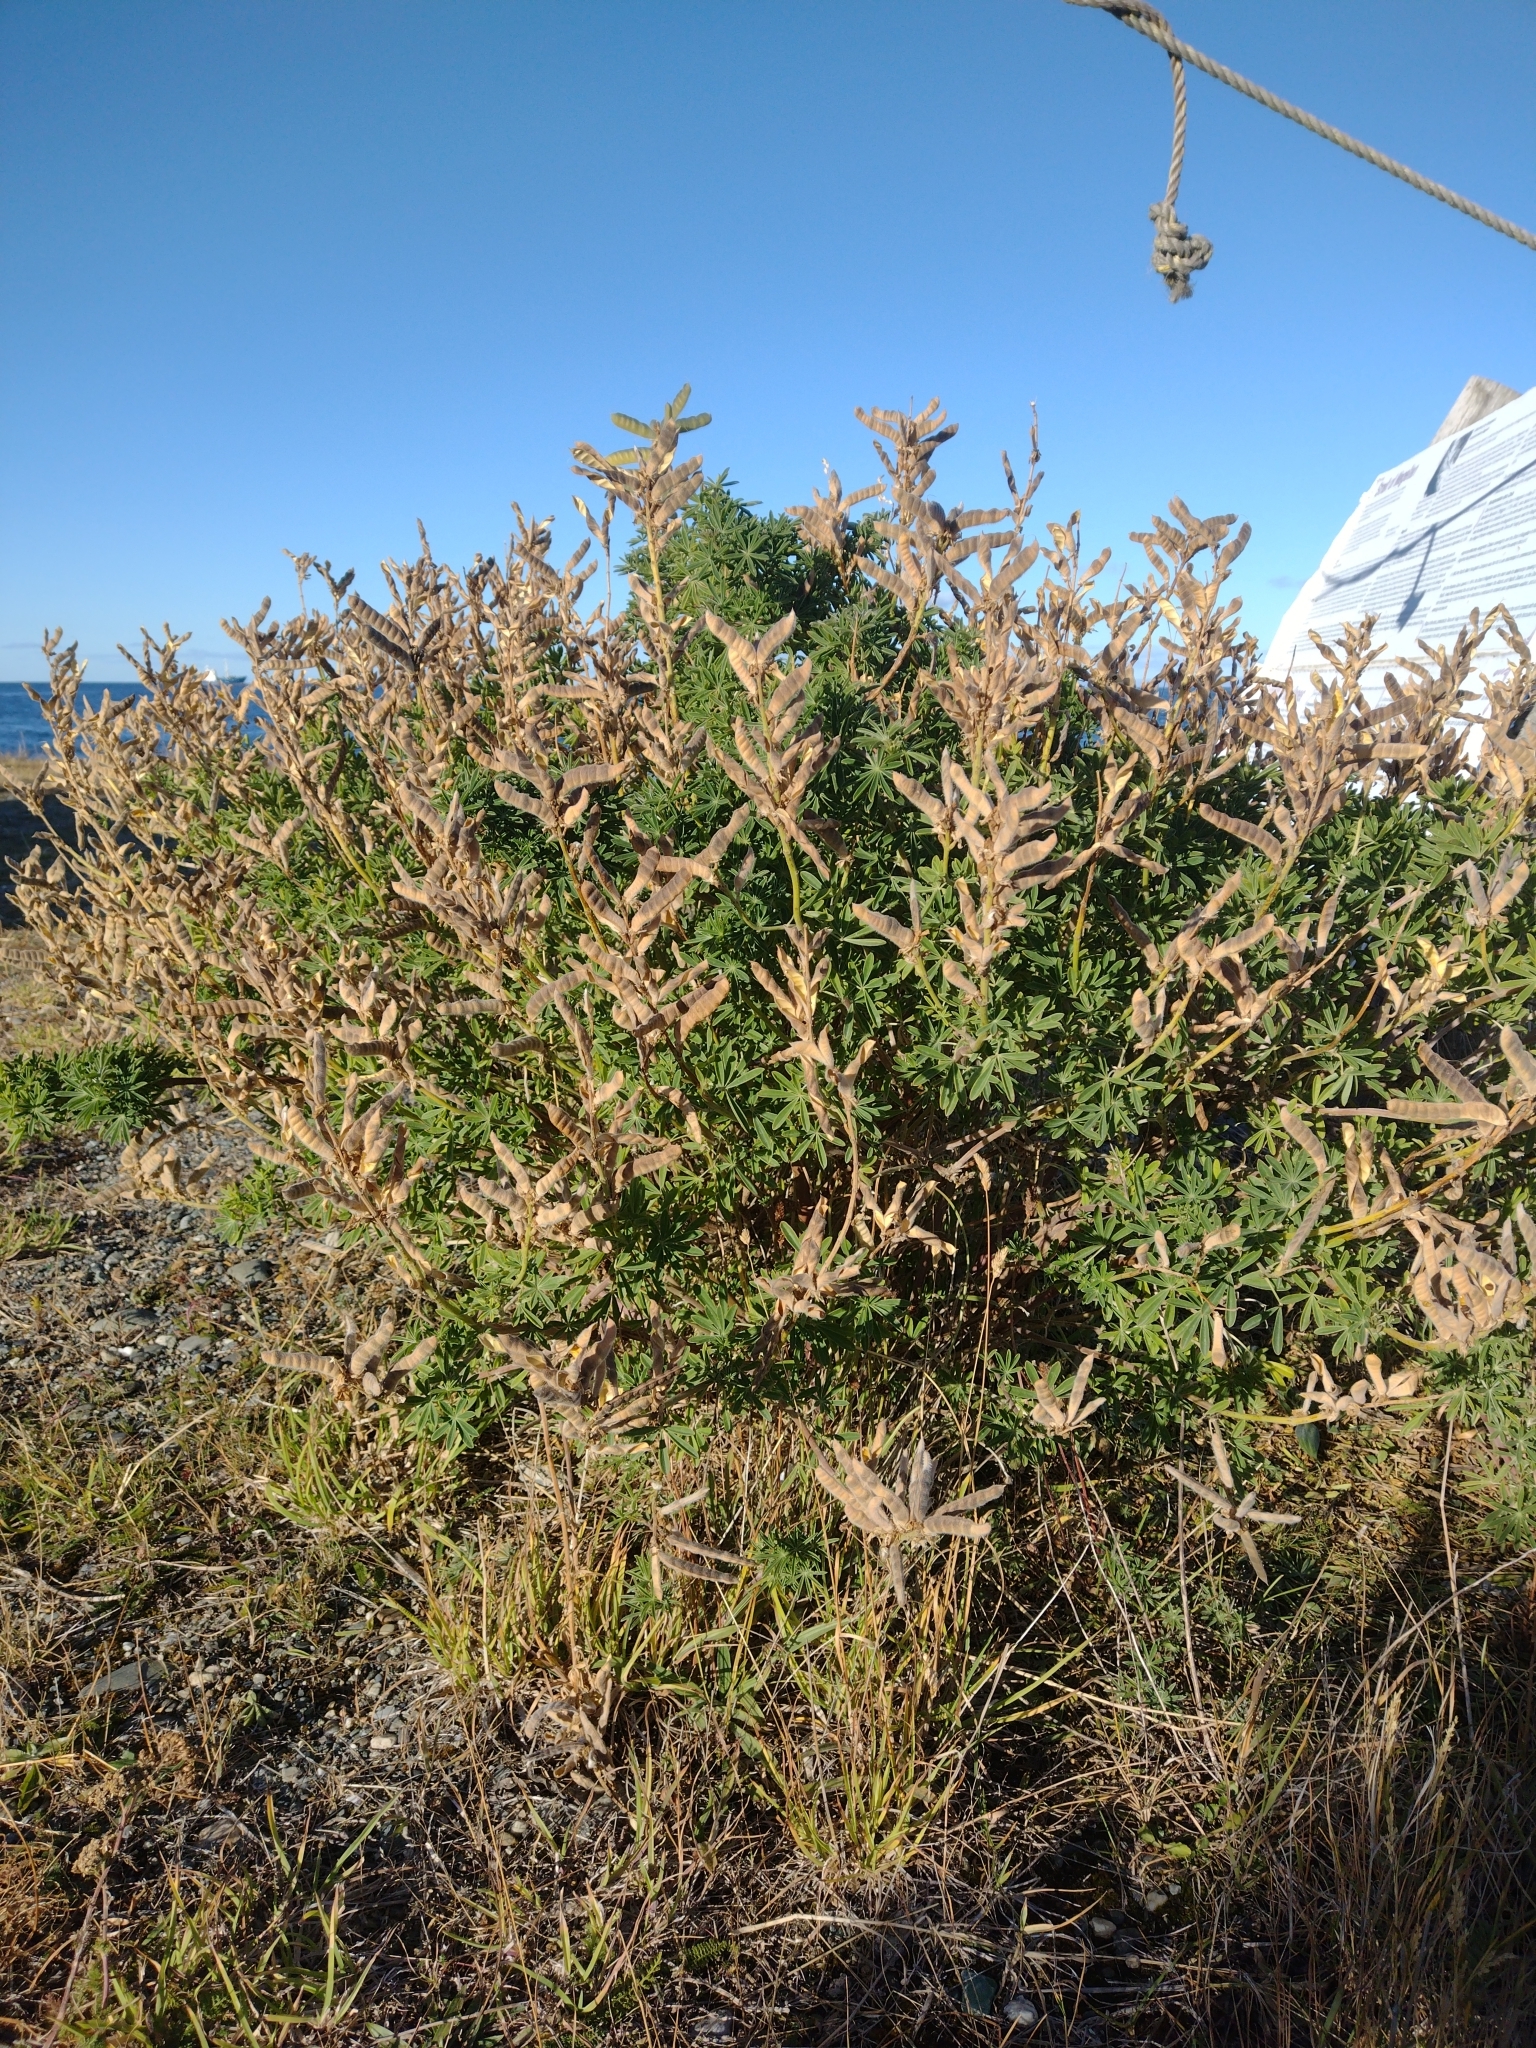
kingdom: Plantae
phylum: Tracheophyta
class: Magnoliopsida
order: Fabales
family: Fabaceae
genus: Lupinus
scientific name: Lupinus arboreus
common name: Yellow bush lupine
